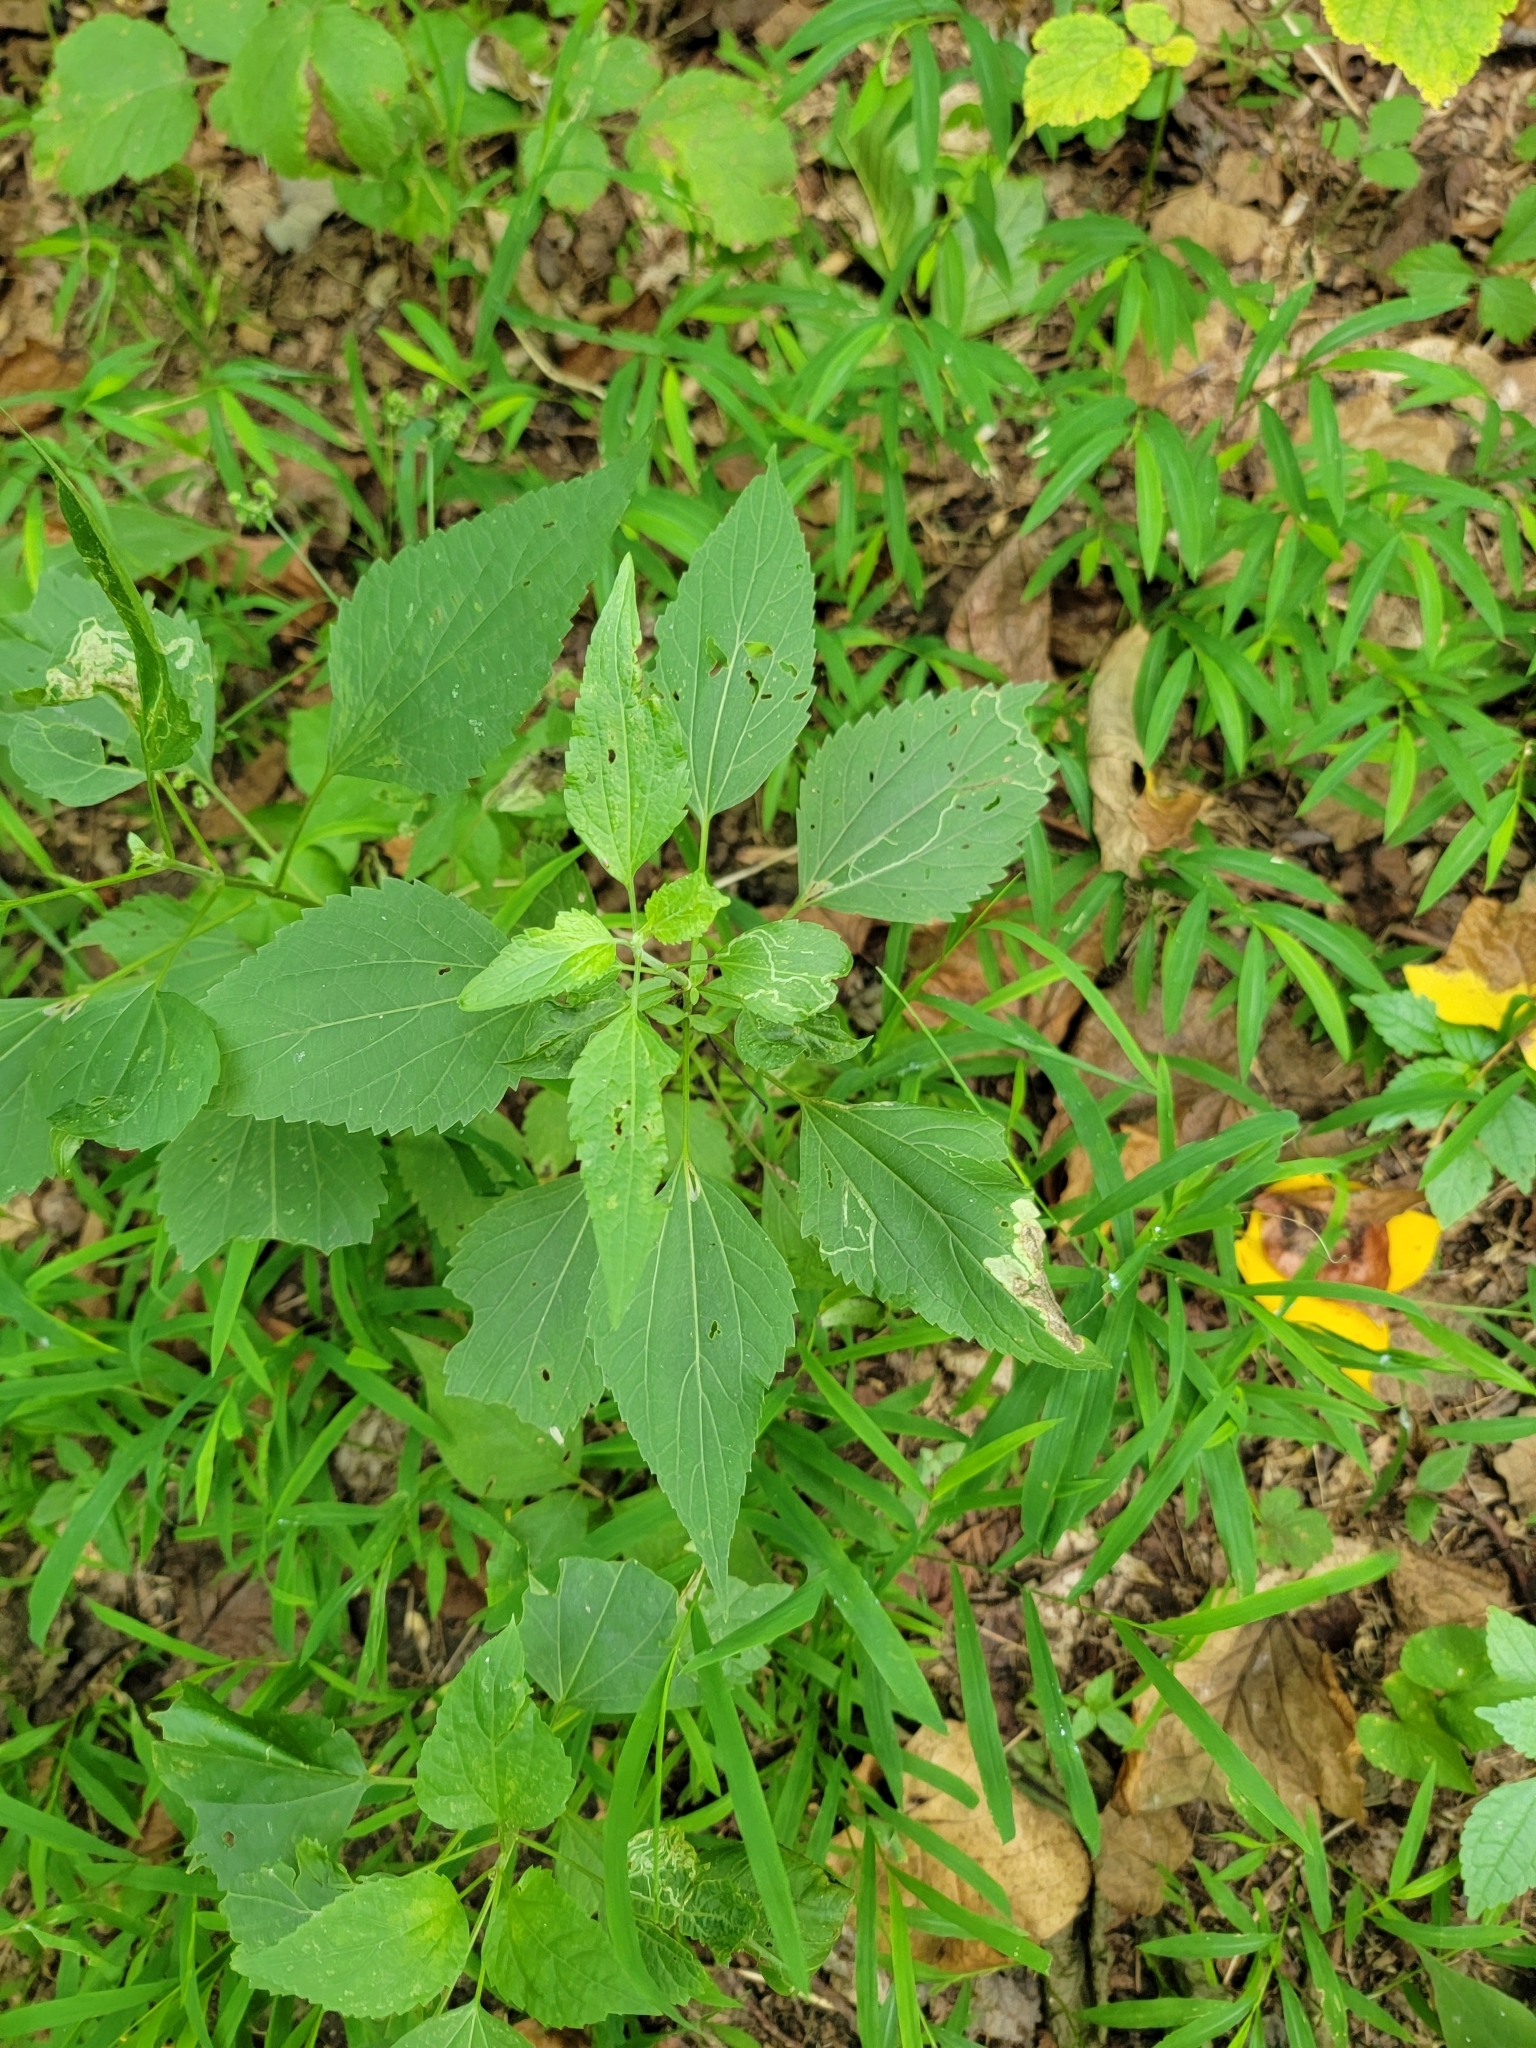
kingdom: Plantae
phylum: Tracheophyta
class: Magnoliopsida
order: Asterales
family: Asteraceae
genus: Ageratina
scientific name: Ageratina altissima
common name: White snakeroot
